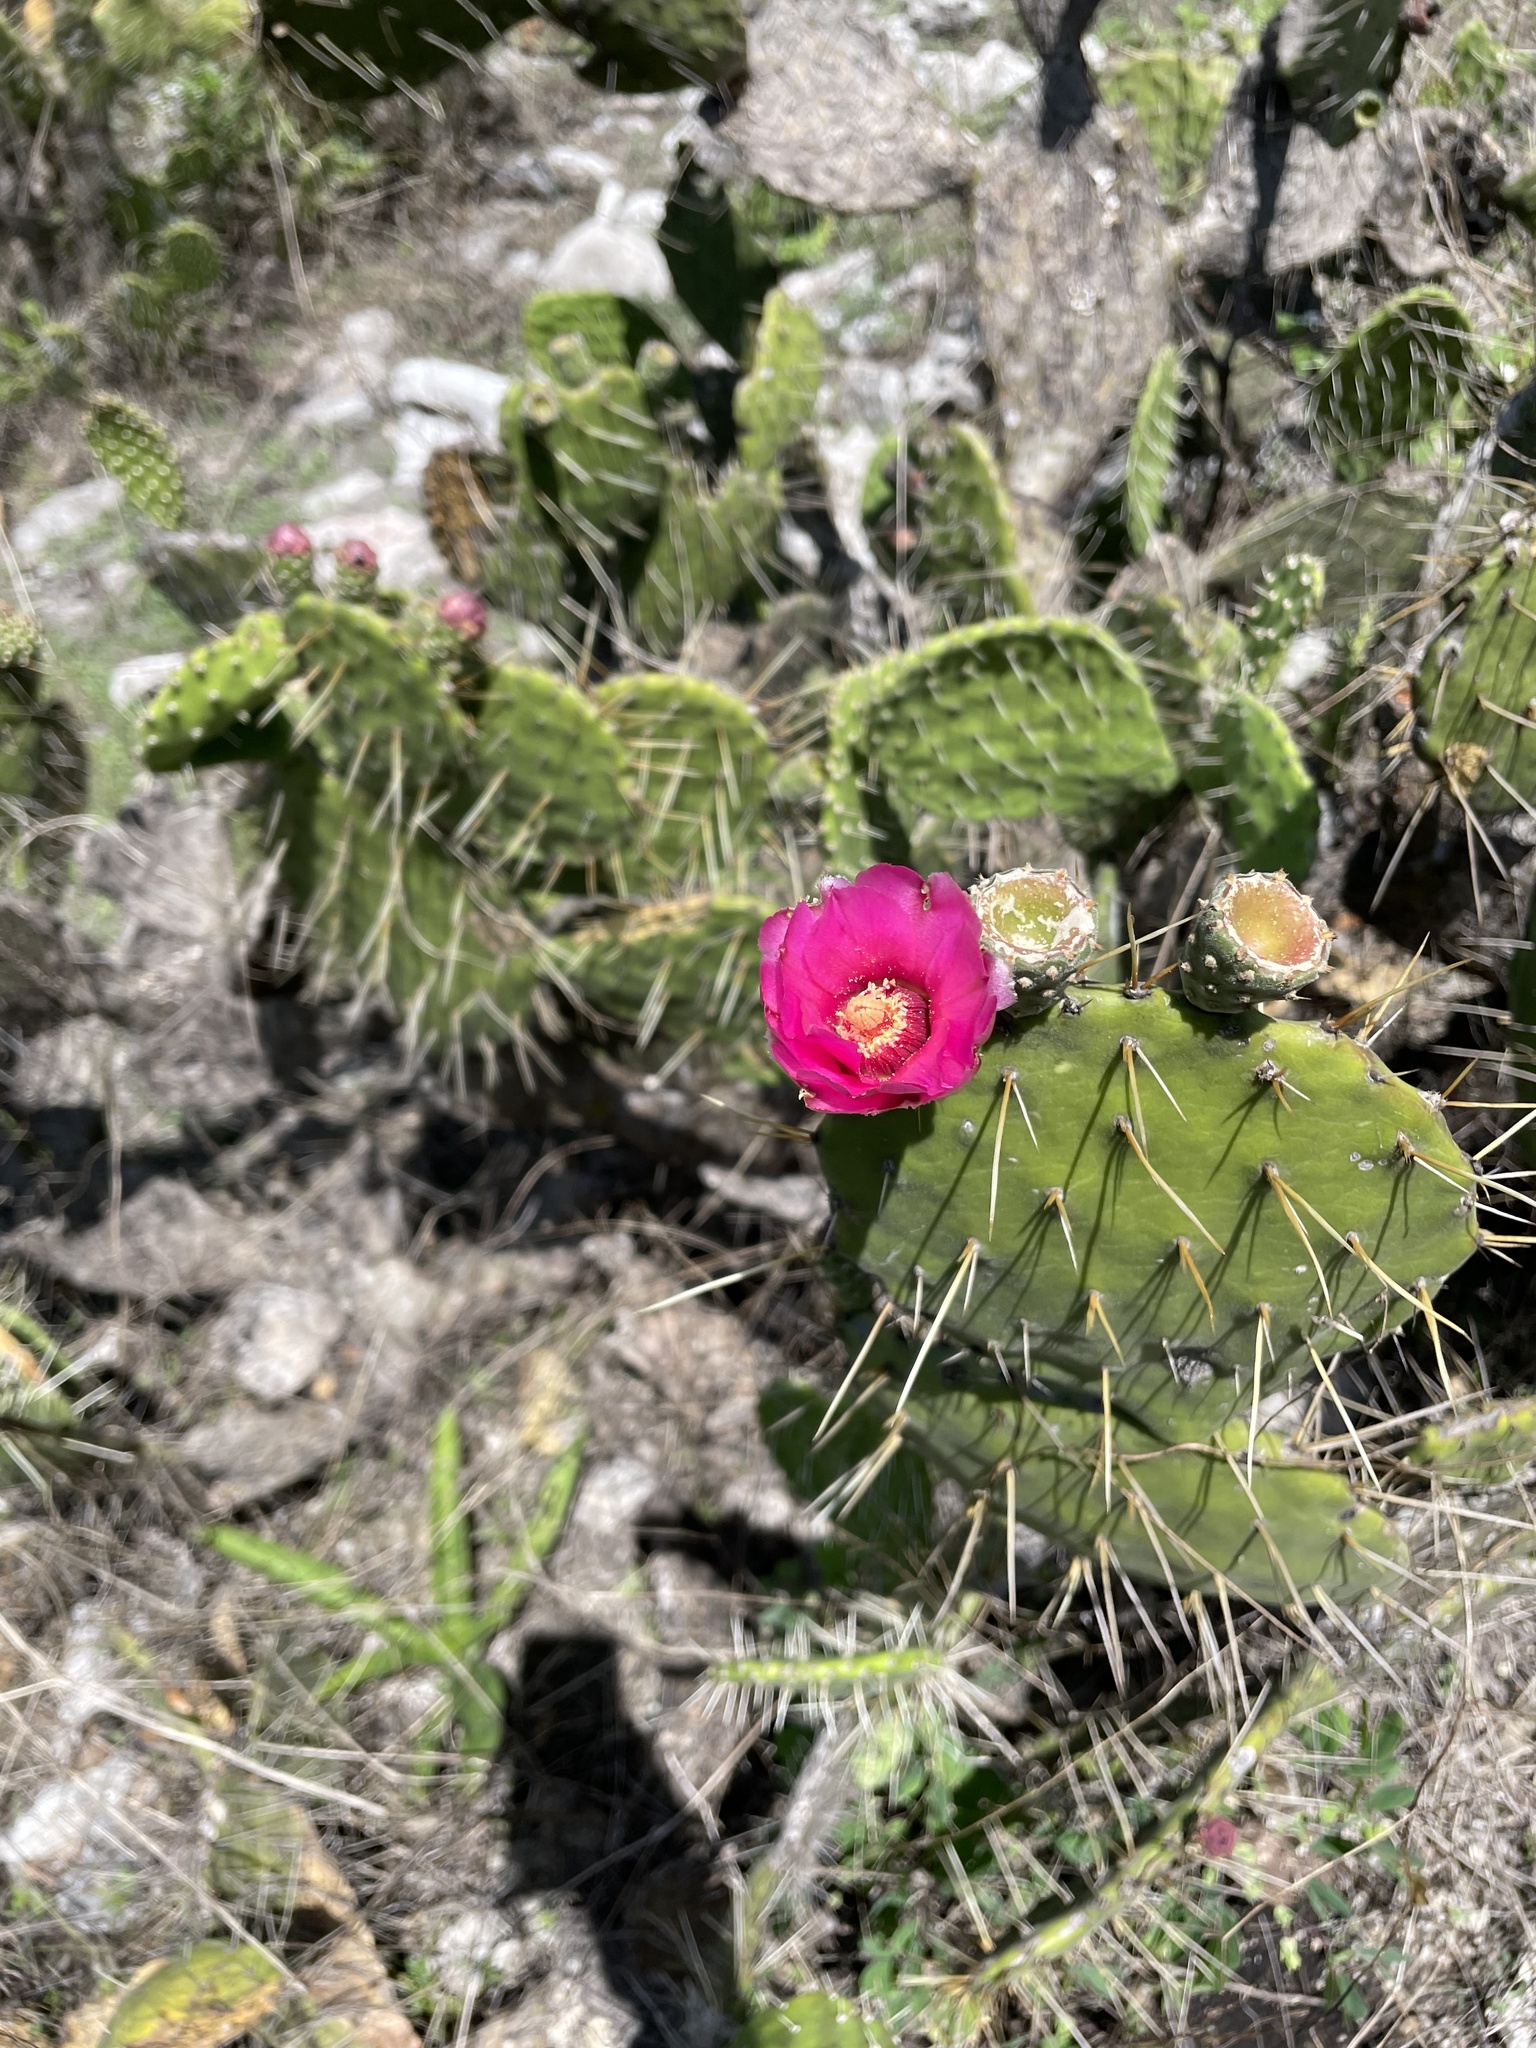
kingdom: Plantae
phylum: Tracheophyta
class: Magnoliopsida
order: Caryophyllales
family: Cactaceae
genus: Opuntia
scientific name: Opuntia depressa
